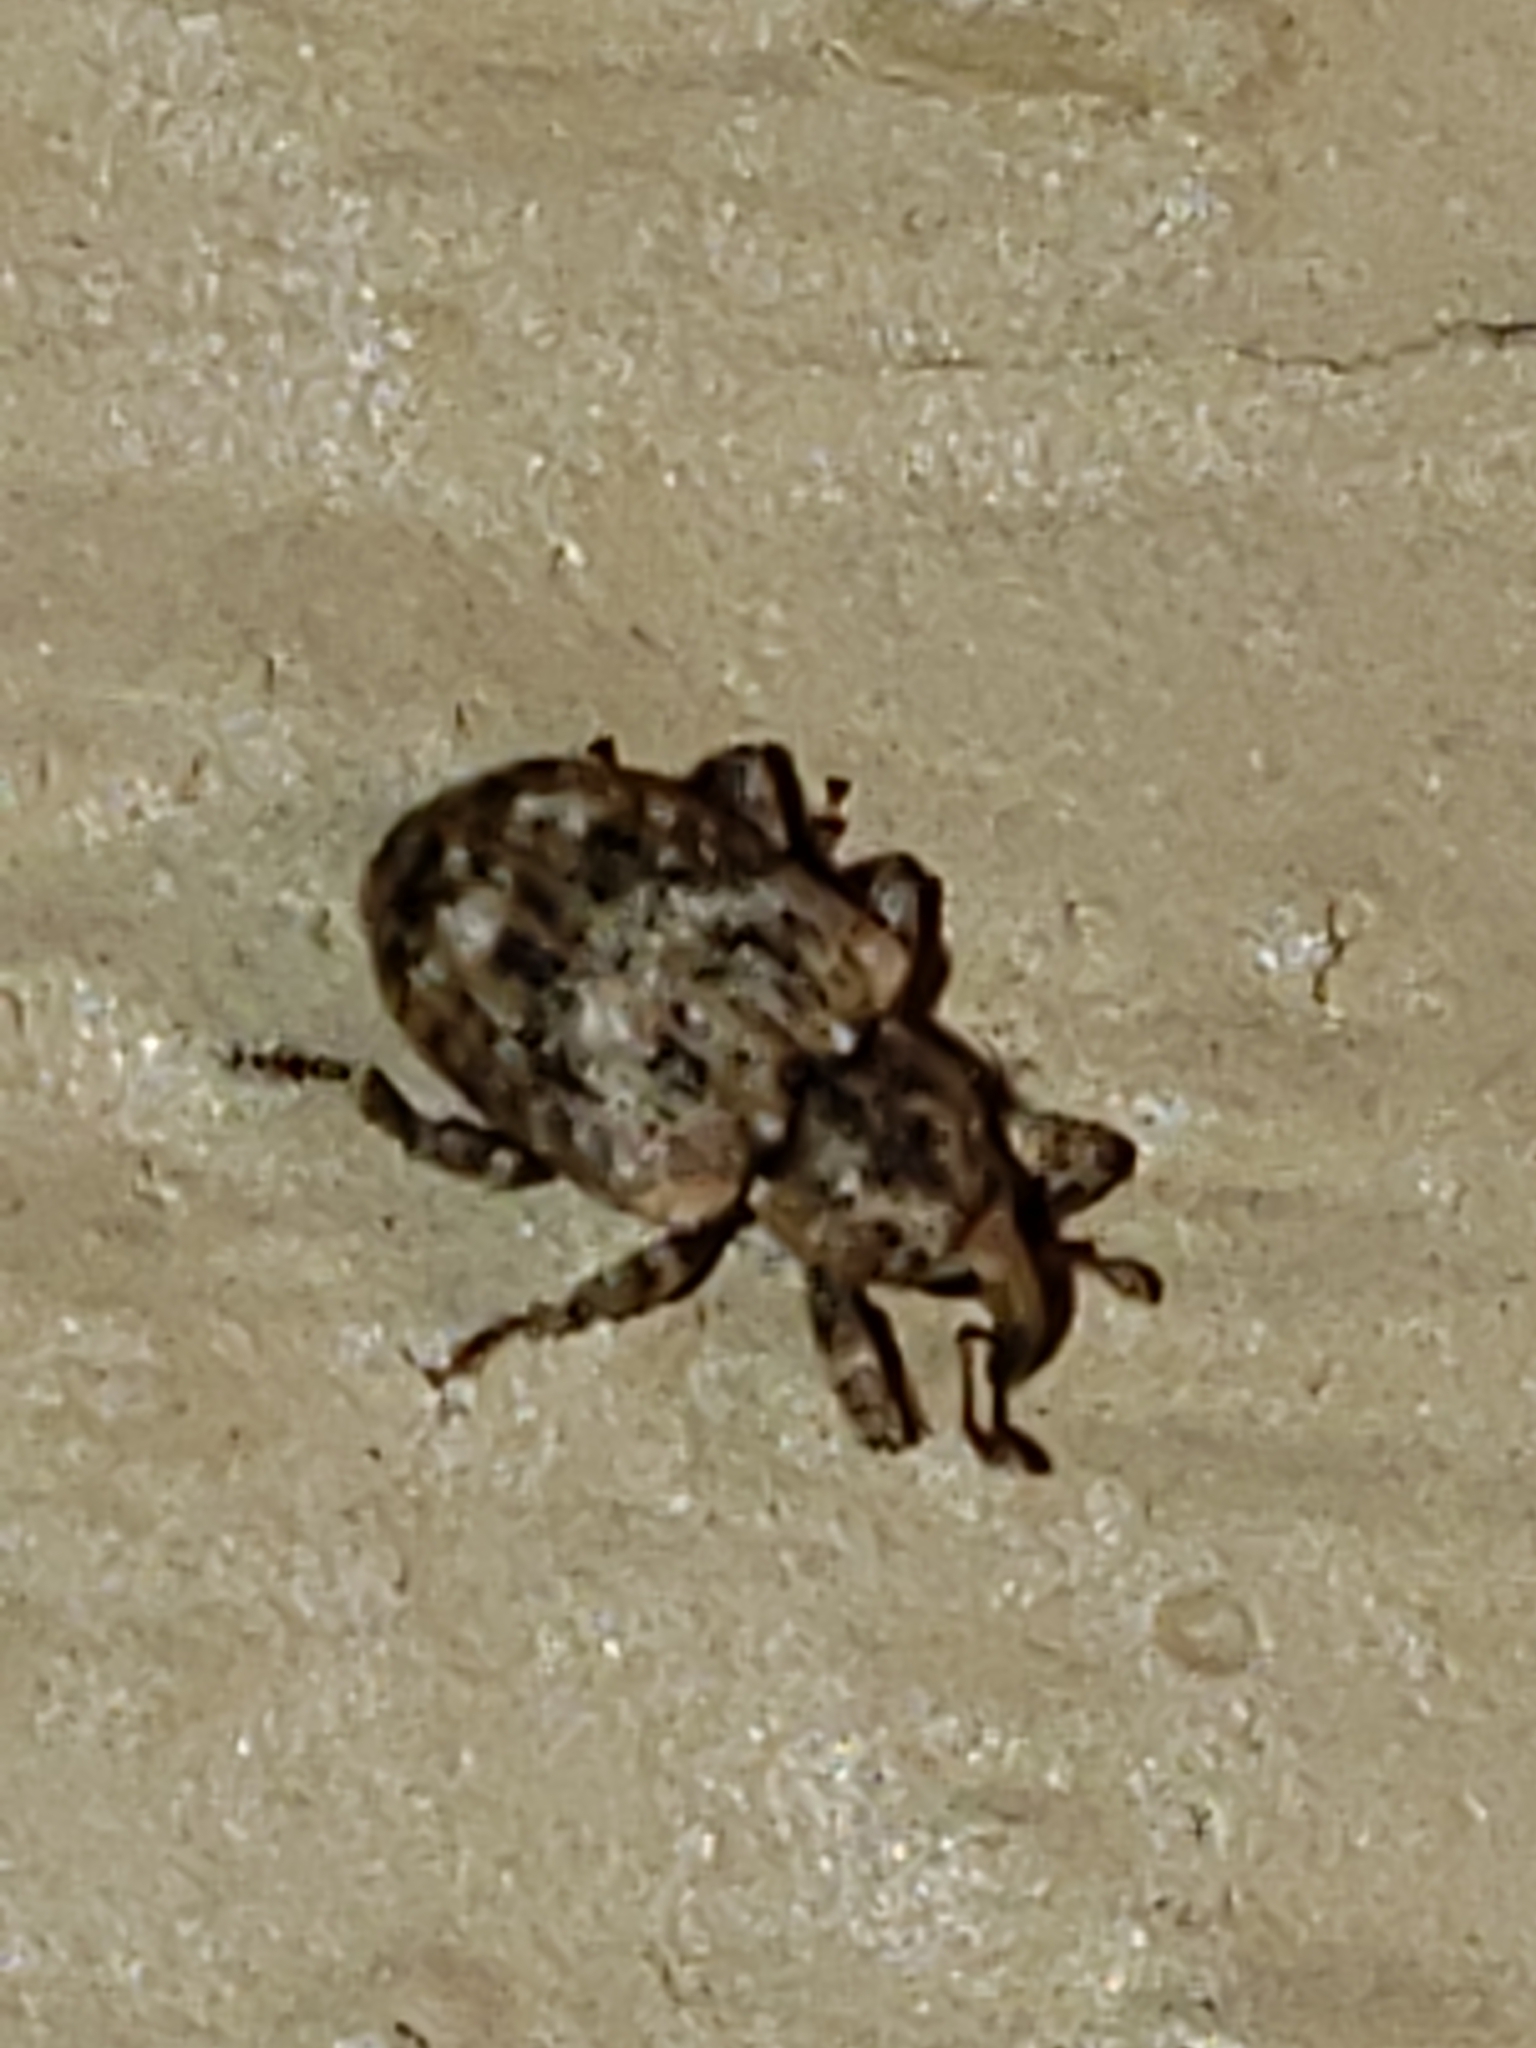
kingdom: Animalia
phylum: Arthropoda
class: Insecta
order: Coleoptera
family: Curculionidae
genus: Conotrachelus
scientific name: Conotrachelus recessus
